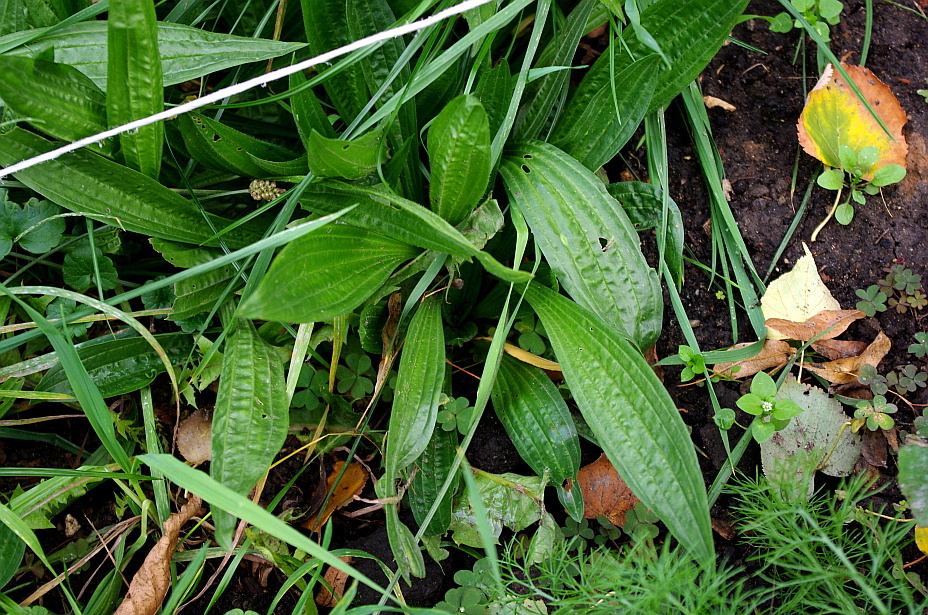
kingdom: Plantae
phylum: Tracheophyta
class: Magnoliopsida
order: Lamiales
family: Plantaginaceae
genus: Plantago
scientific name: Plantago lanceolata
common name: Ribwort plantain
